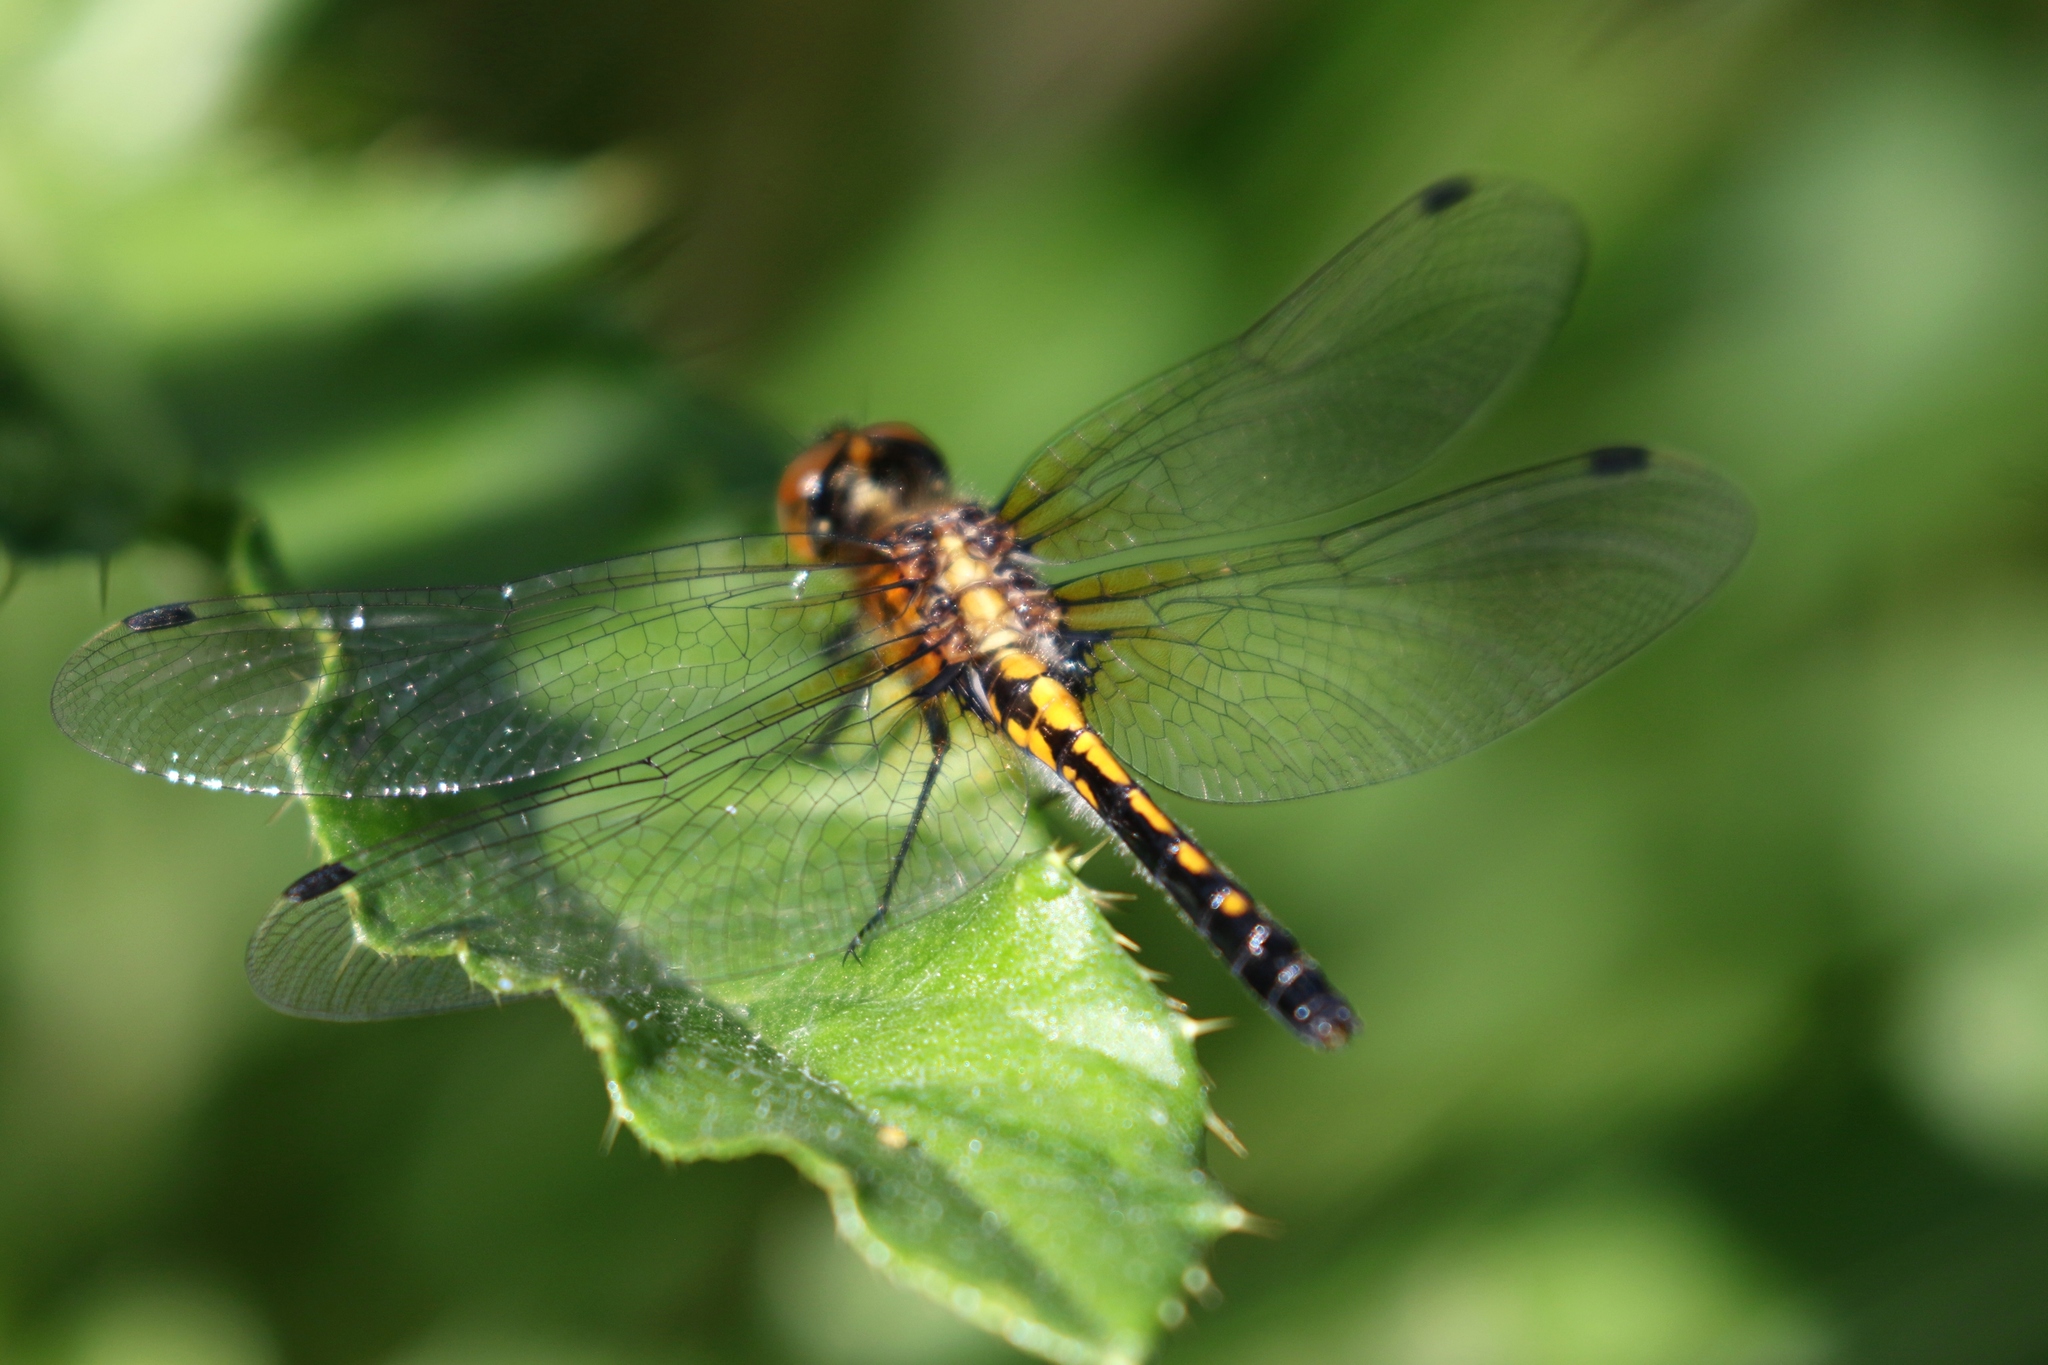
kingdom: Animalia
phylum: Arthropoda
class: Insecta
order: Odonata
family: Libellulidae
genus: Leucorrhinia
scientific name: Leucorrhinia intacta
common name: Dot-tailed whiteface
